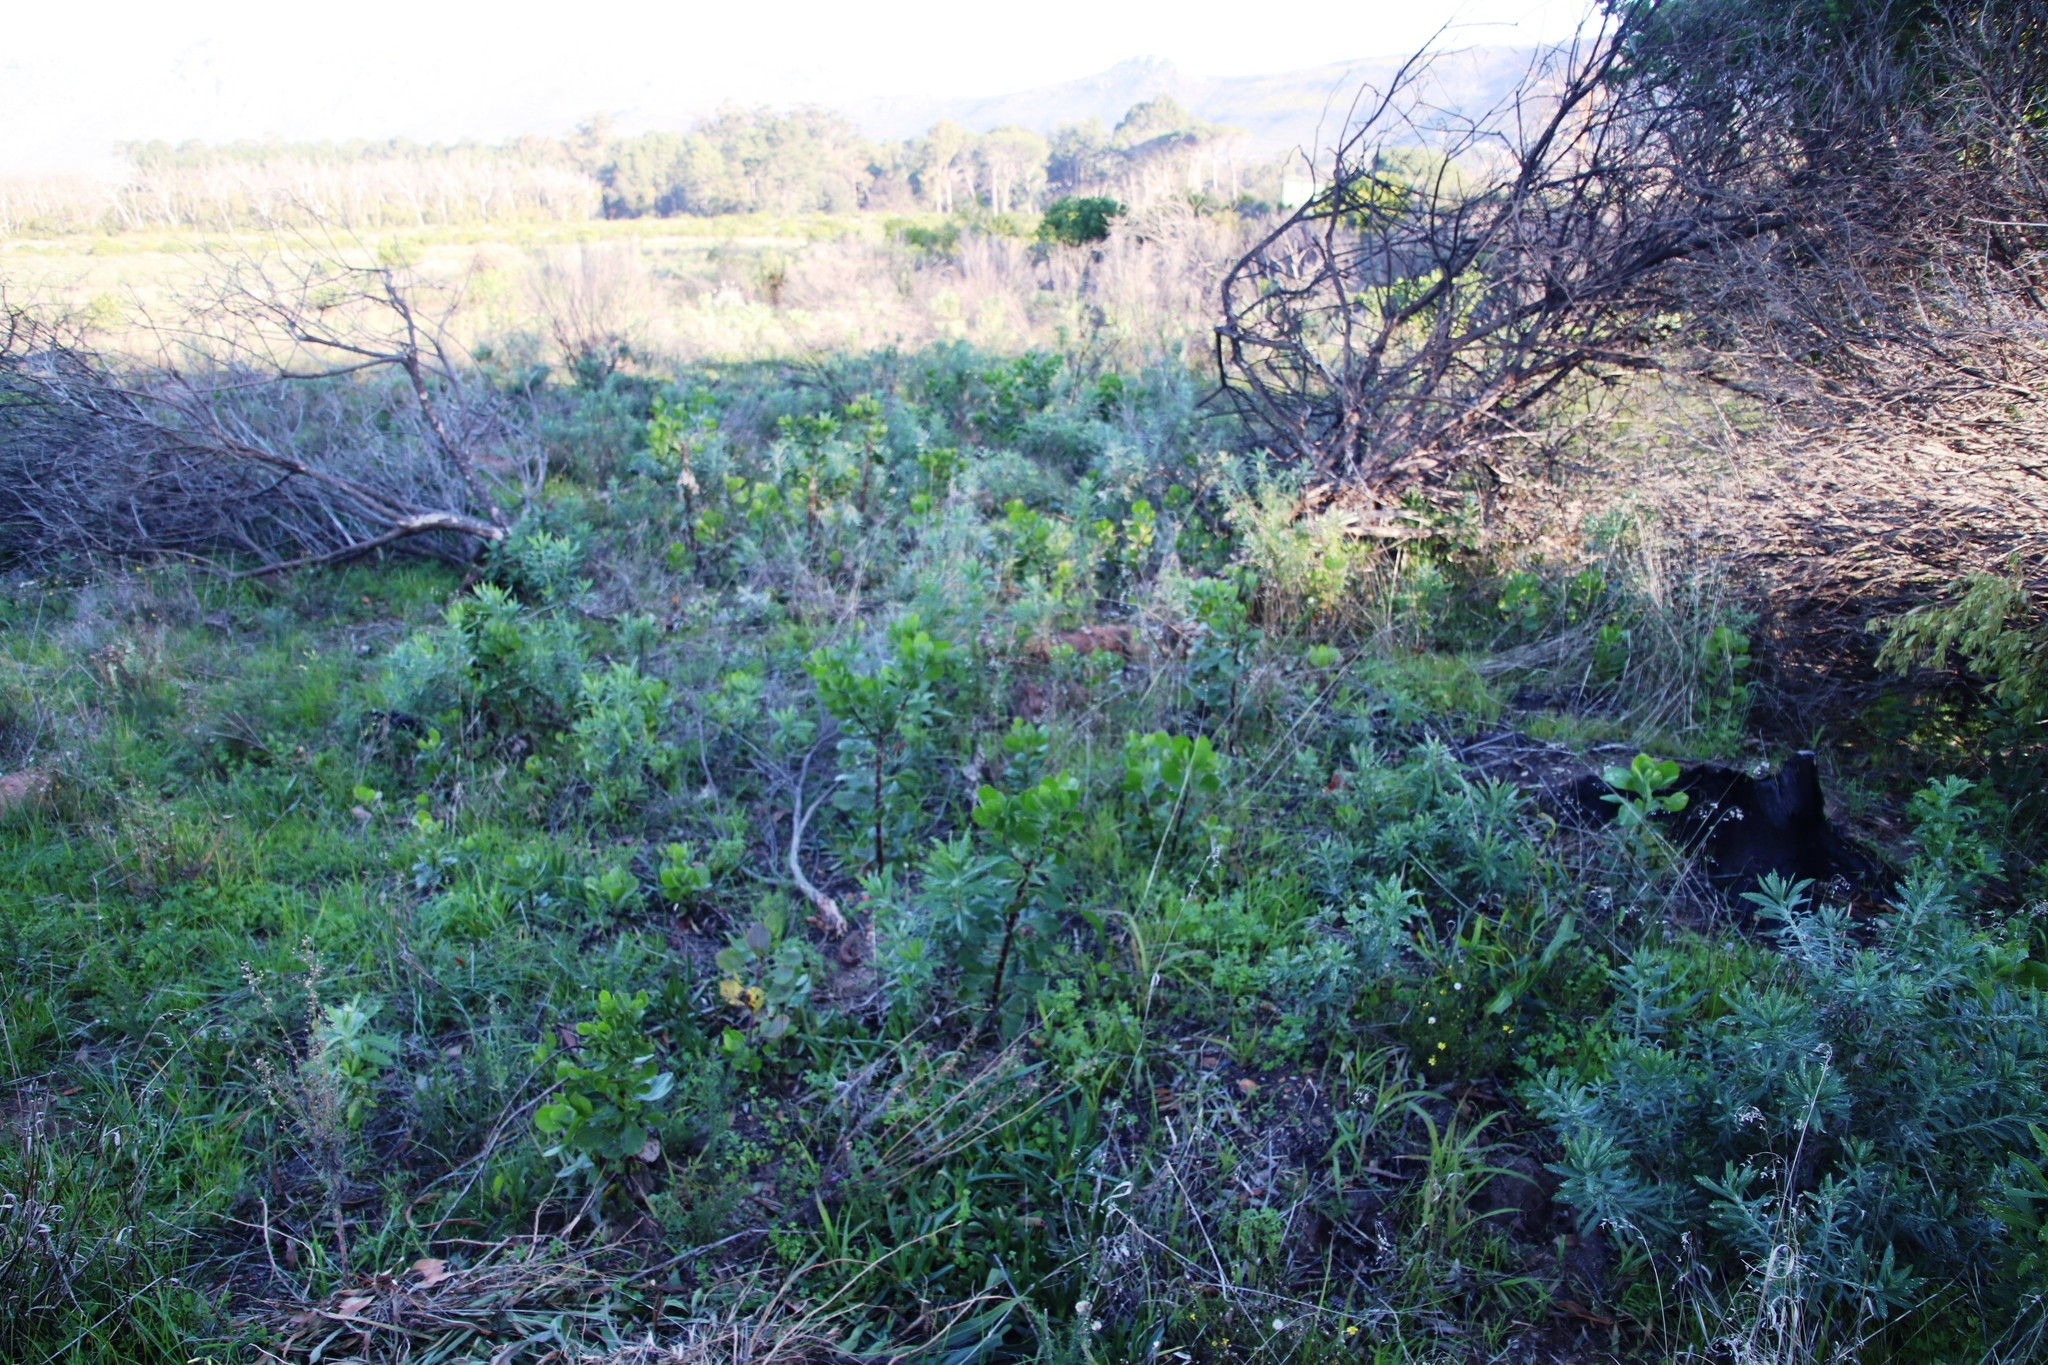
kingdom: Plantae
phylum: Tracheophyta
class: Magnoliopsida
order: Asterales
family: Asteraceae
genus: Senecio
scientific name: Senecio pterophorus
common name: Shoddy ragwort
